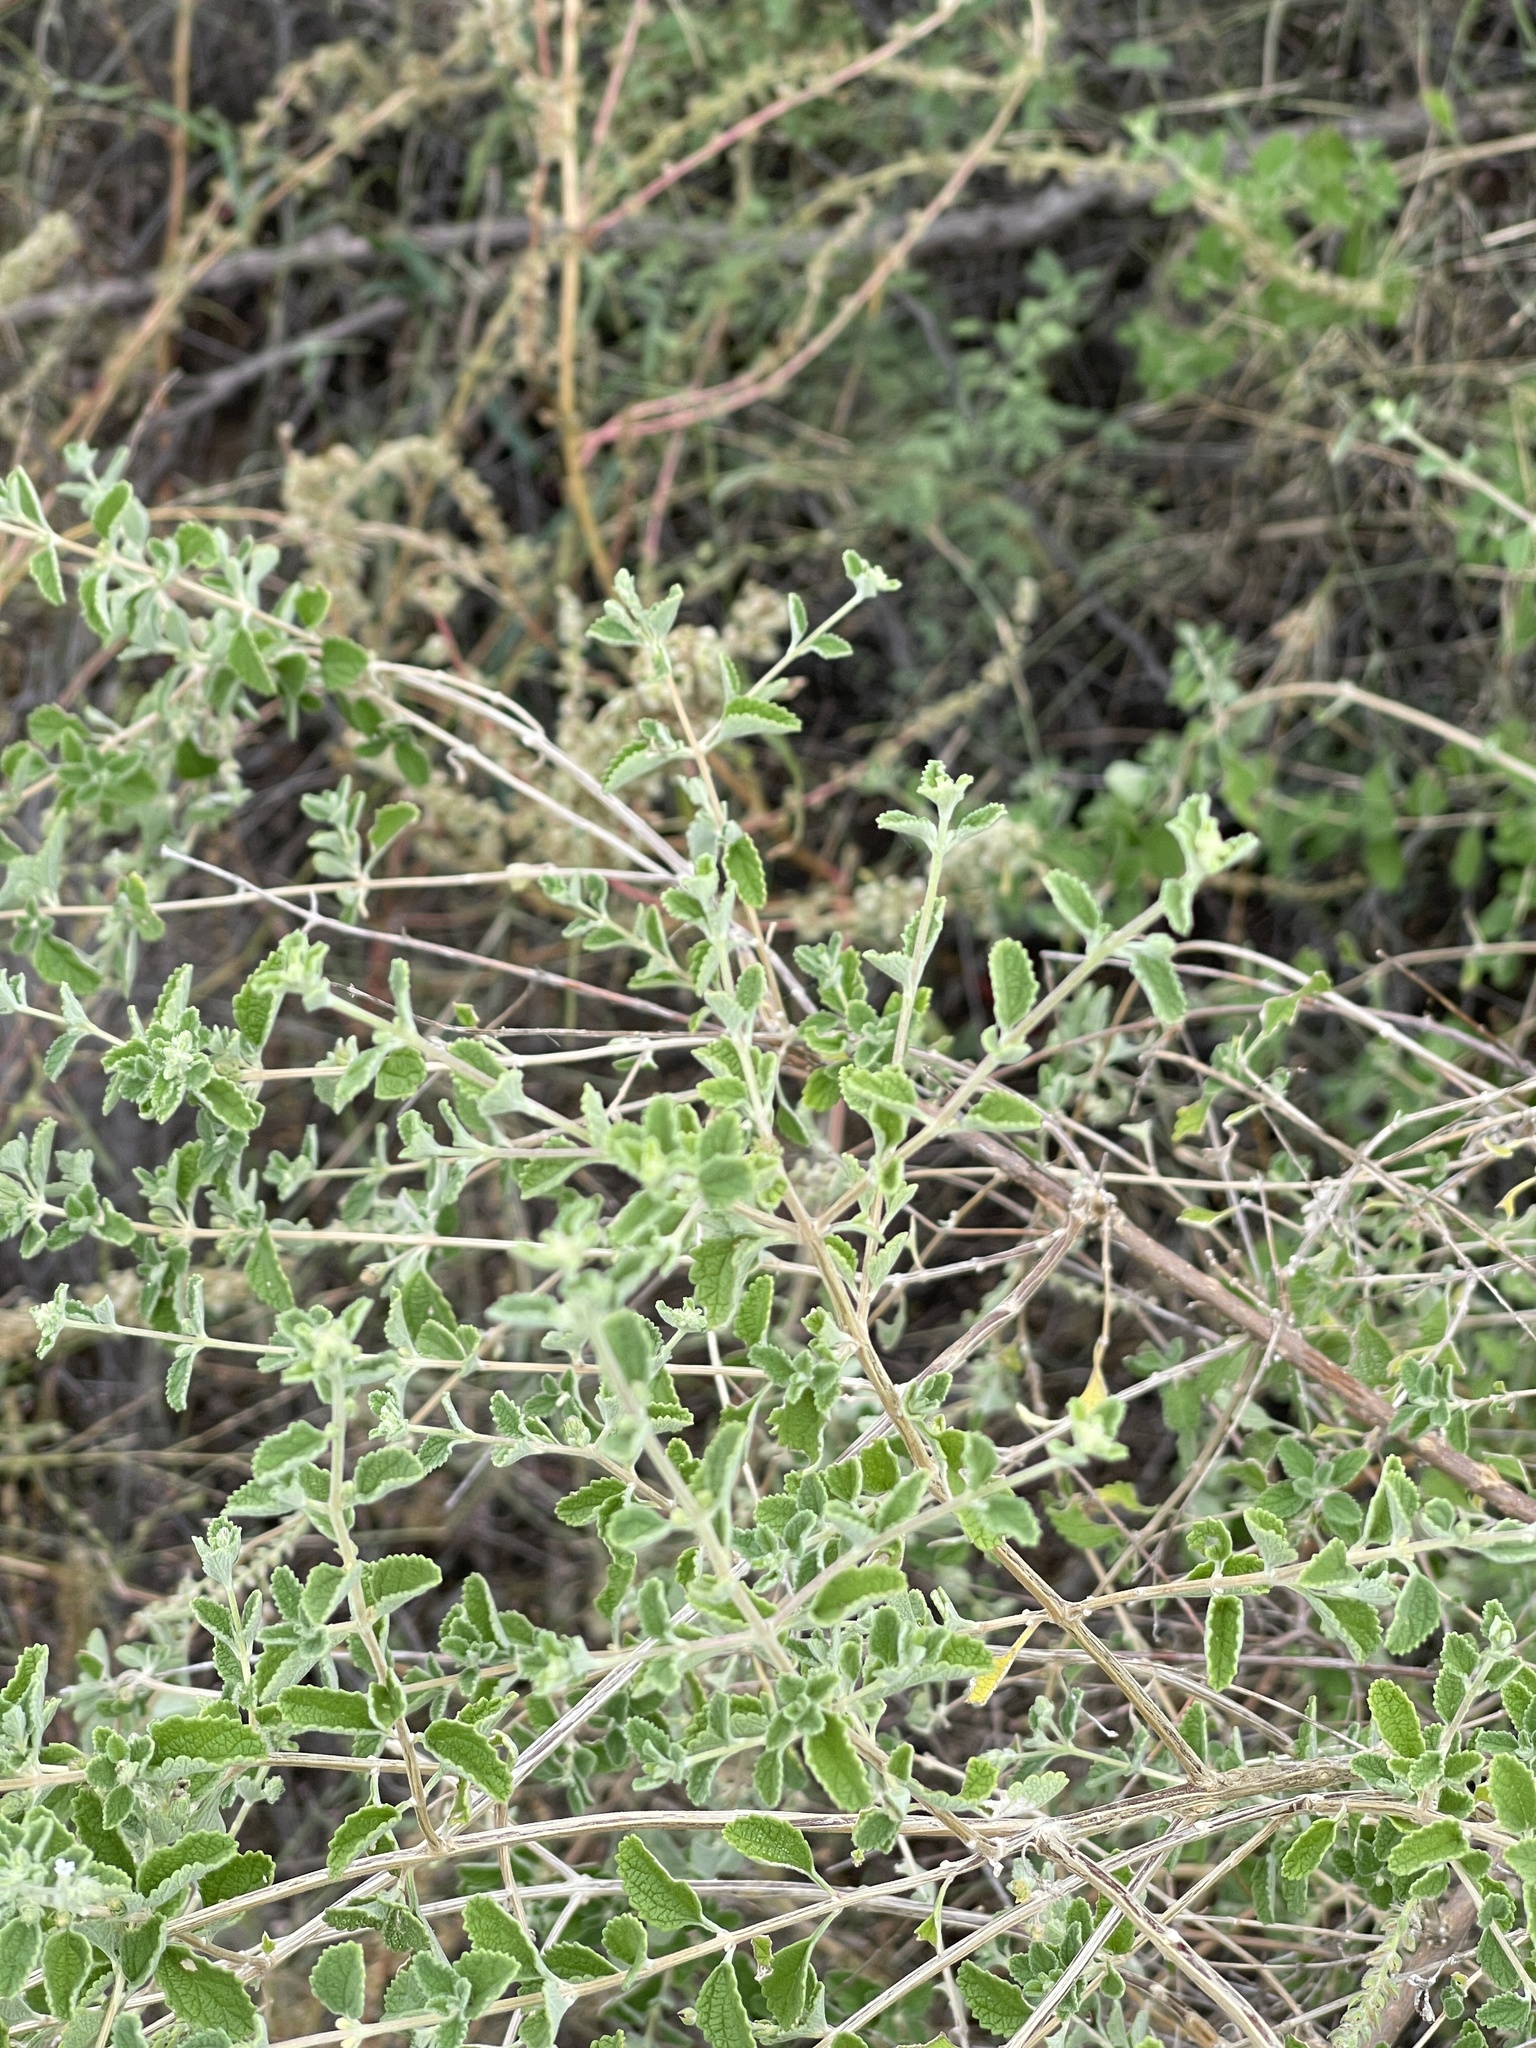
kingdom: Plantae
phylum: Tracheophyta
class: Magnoliopsida
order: Lamiales
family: Verbenaceae
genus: Aloysia
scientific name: Aloysia wrightii
